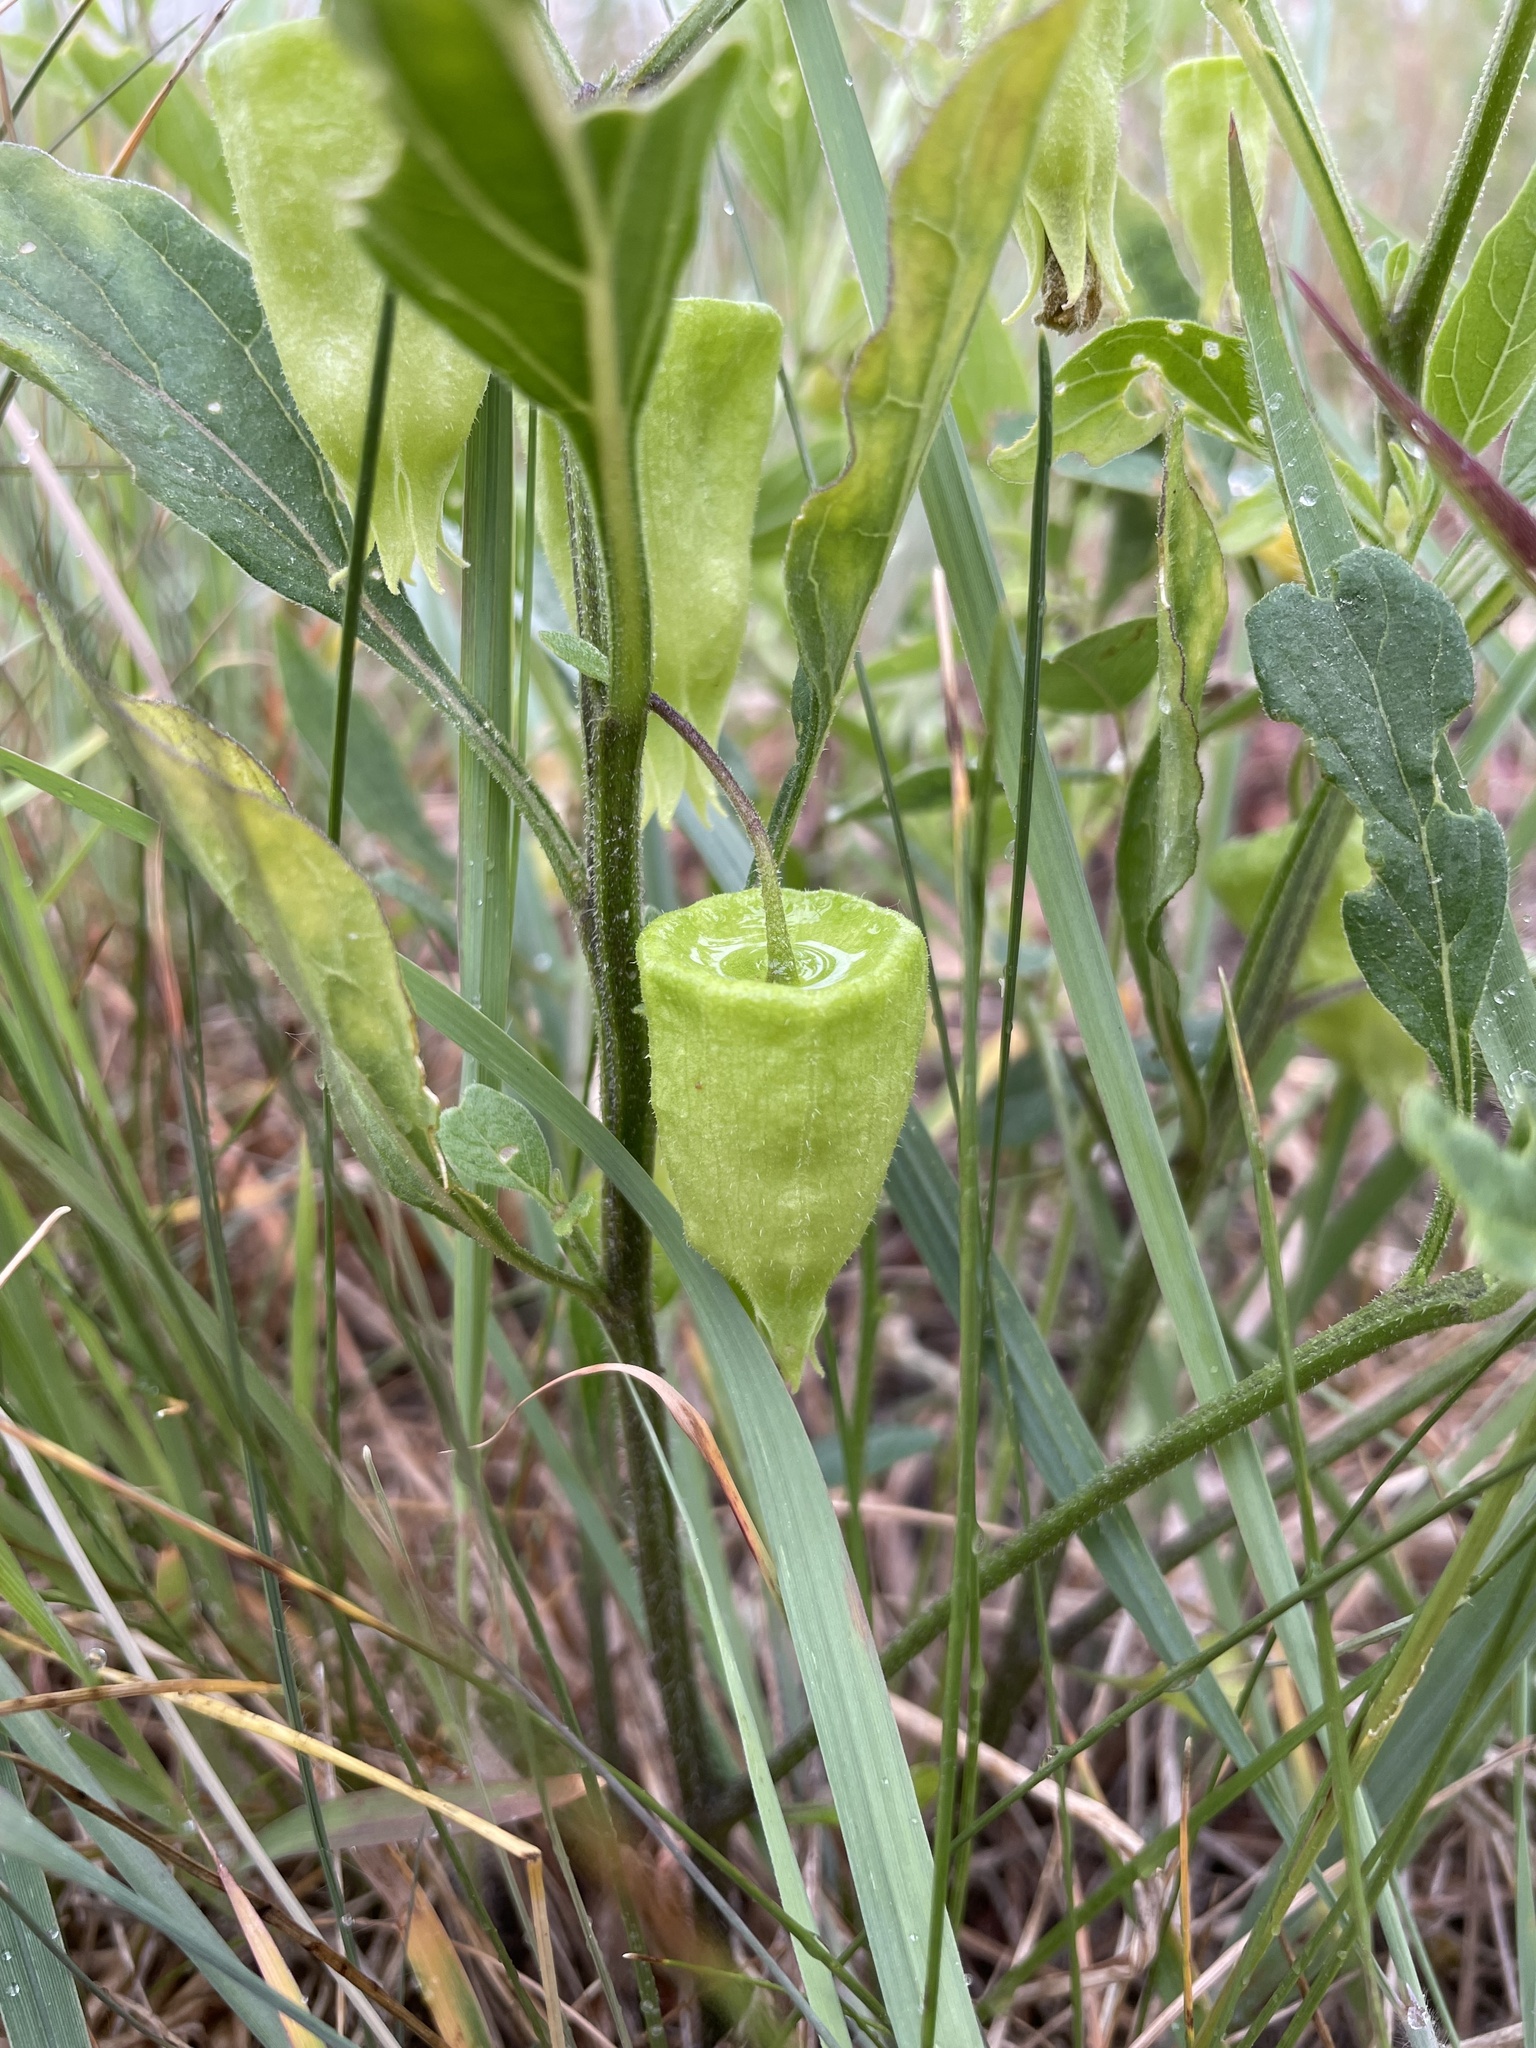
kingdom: Plantae
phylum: Tracheophyta
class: Magnoliopsida
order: Solanales
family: Solanaceae
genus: Physalis
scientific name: Physalis virginiana
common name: Virginia ground-cherry
